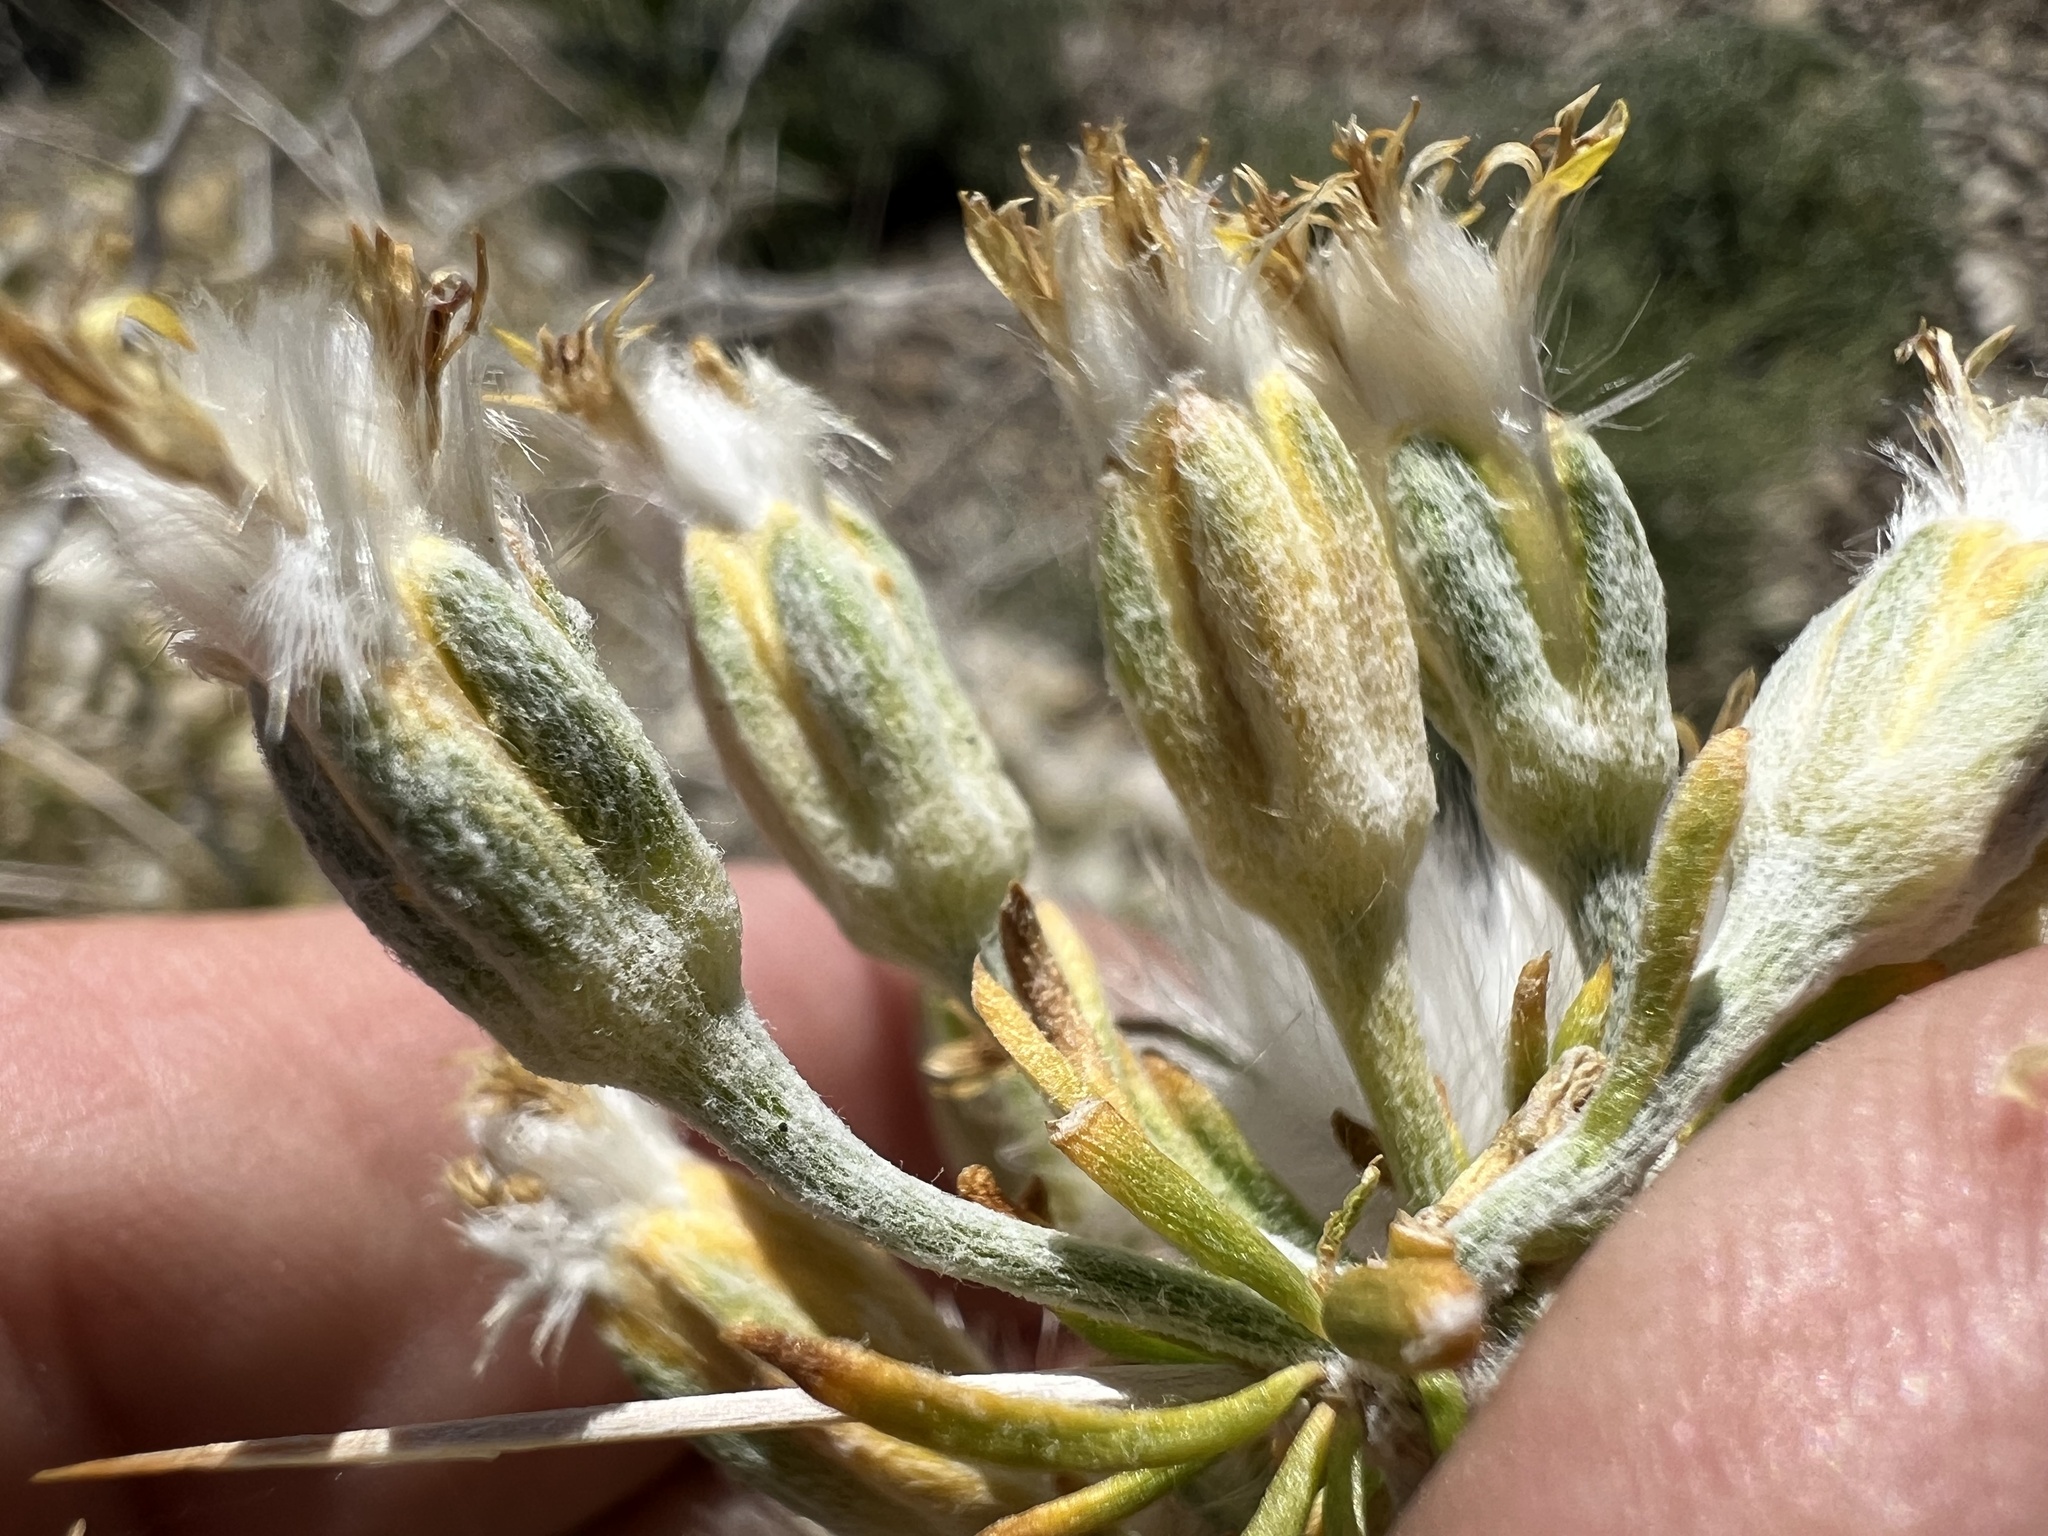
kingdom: Plantae
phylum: Tracheophyta
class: Magnoliopsida
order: Asterales
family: Asteraceae
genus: Tetradymia
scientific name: Tetradymia axillaris
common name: Long-spine horsebrush
